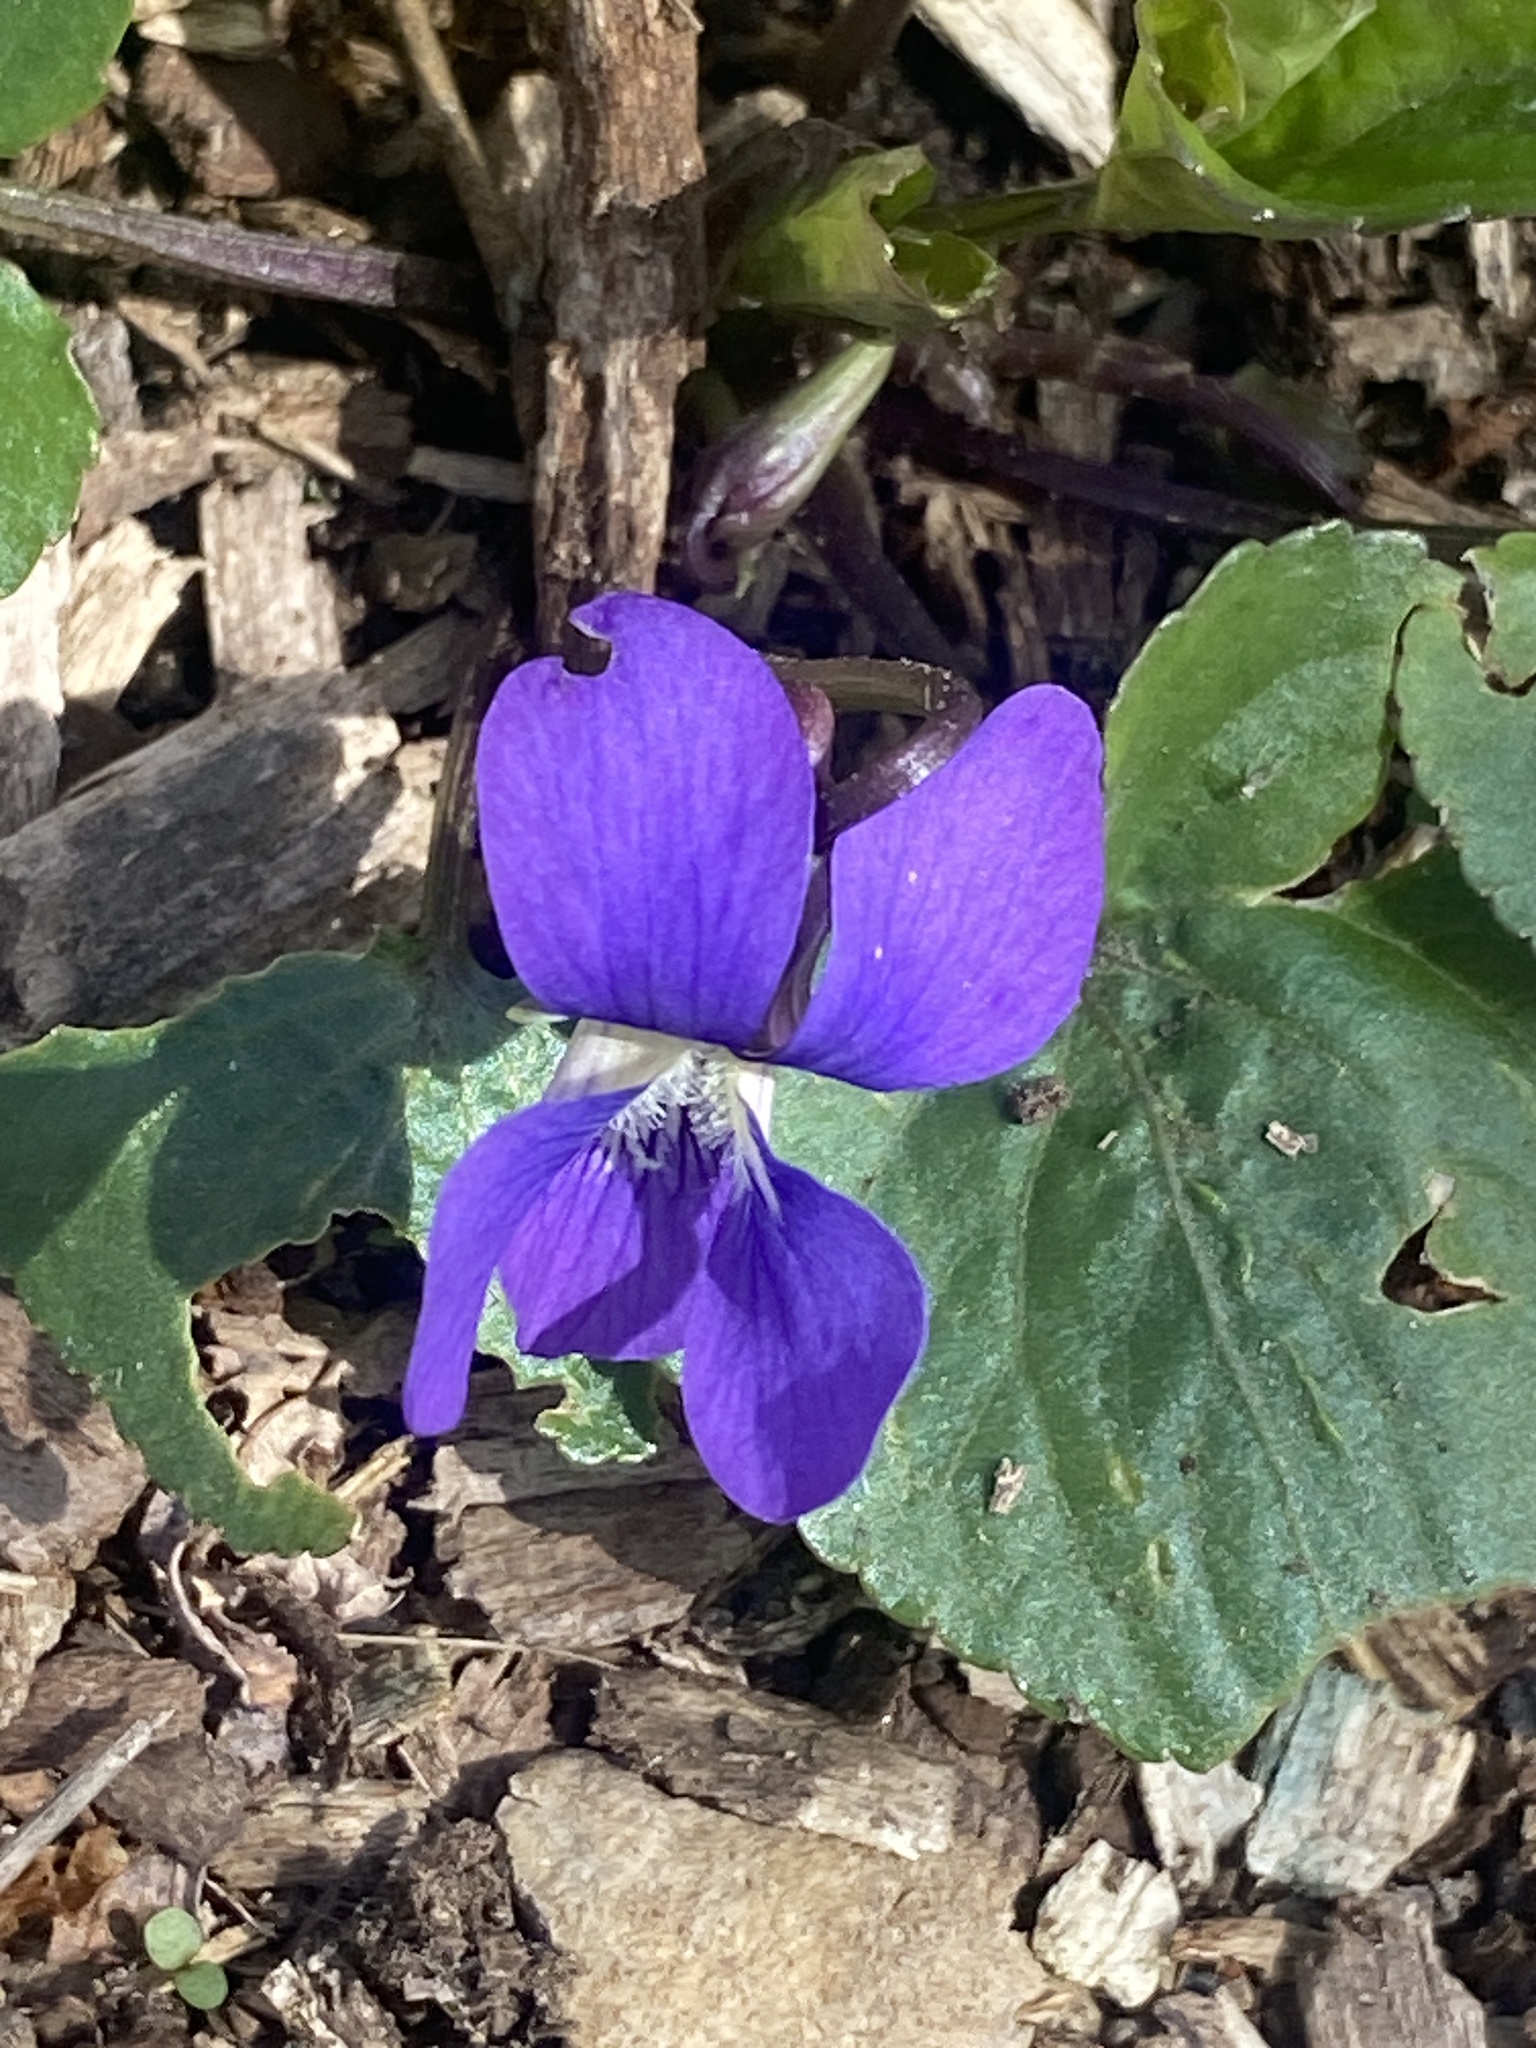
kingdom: Plantae
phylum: Tracheophyta
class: Magnoliopsida
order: Malpighiales
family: Violaceae
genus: Viola
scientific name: Viola sororia
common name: Dooryard violet
